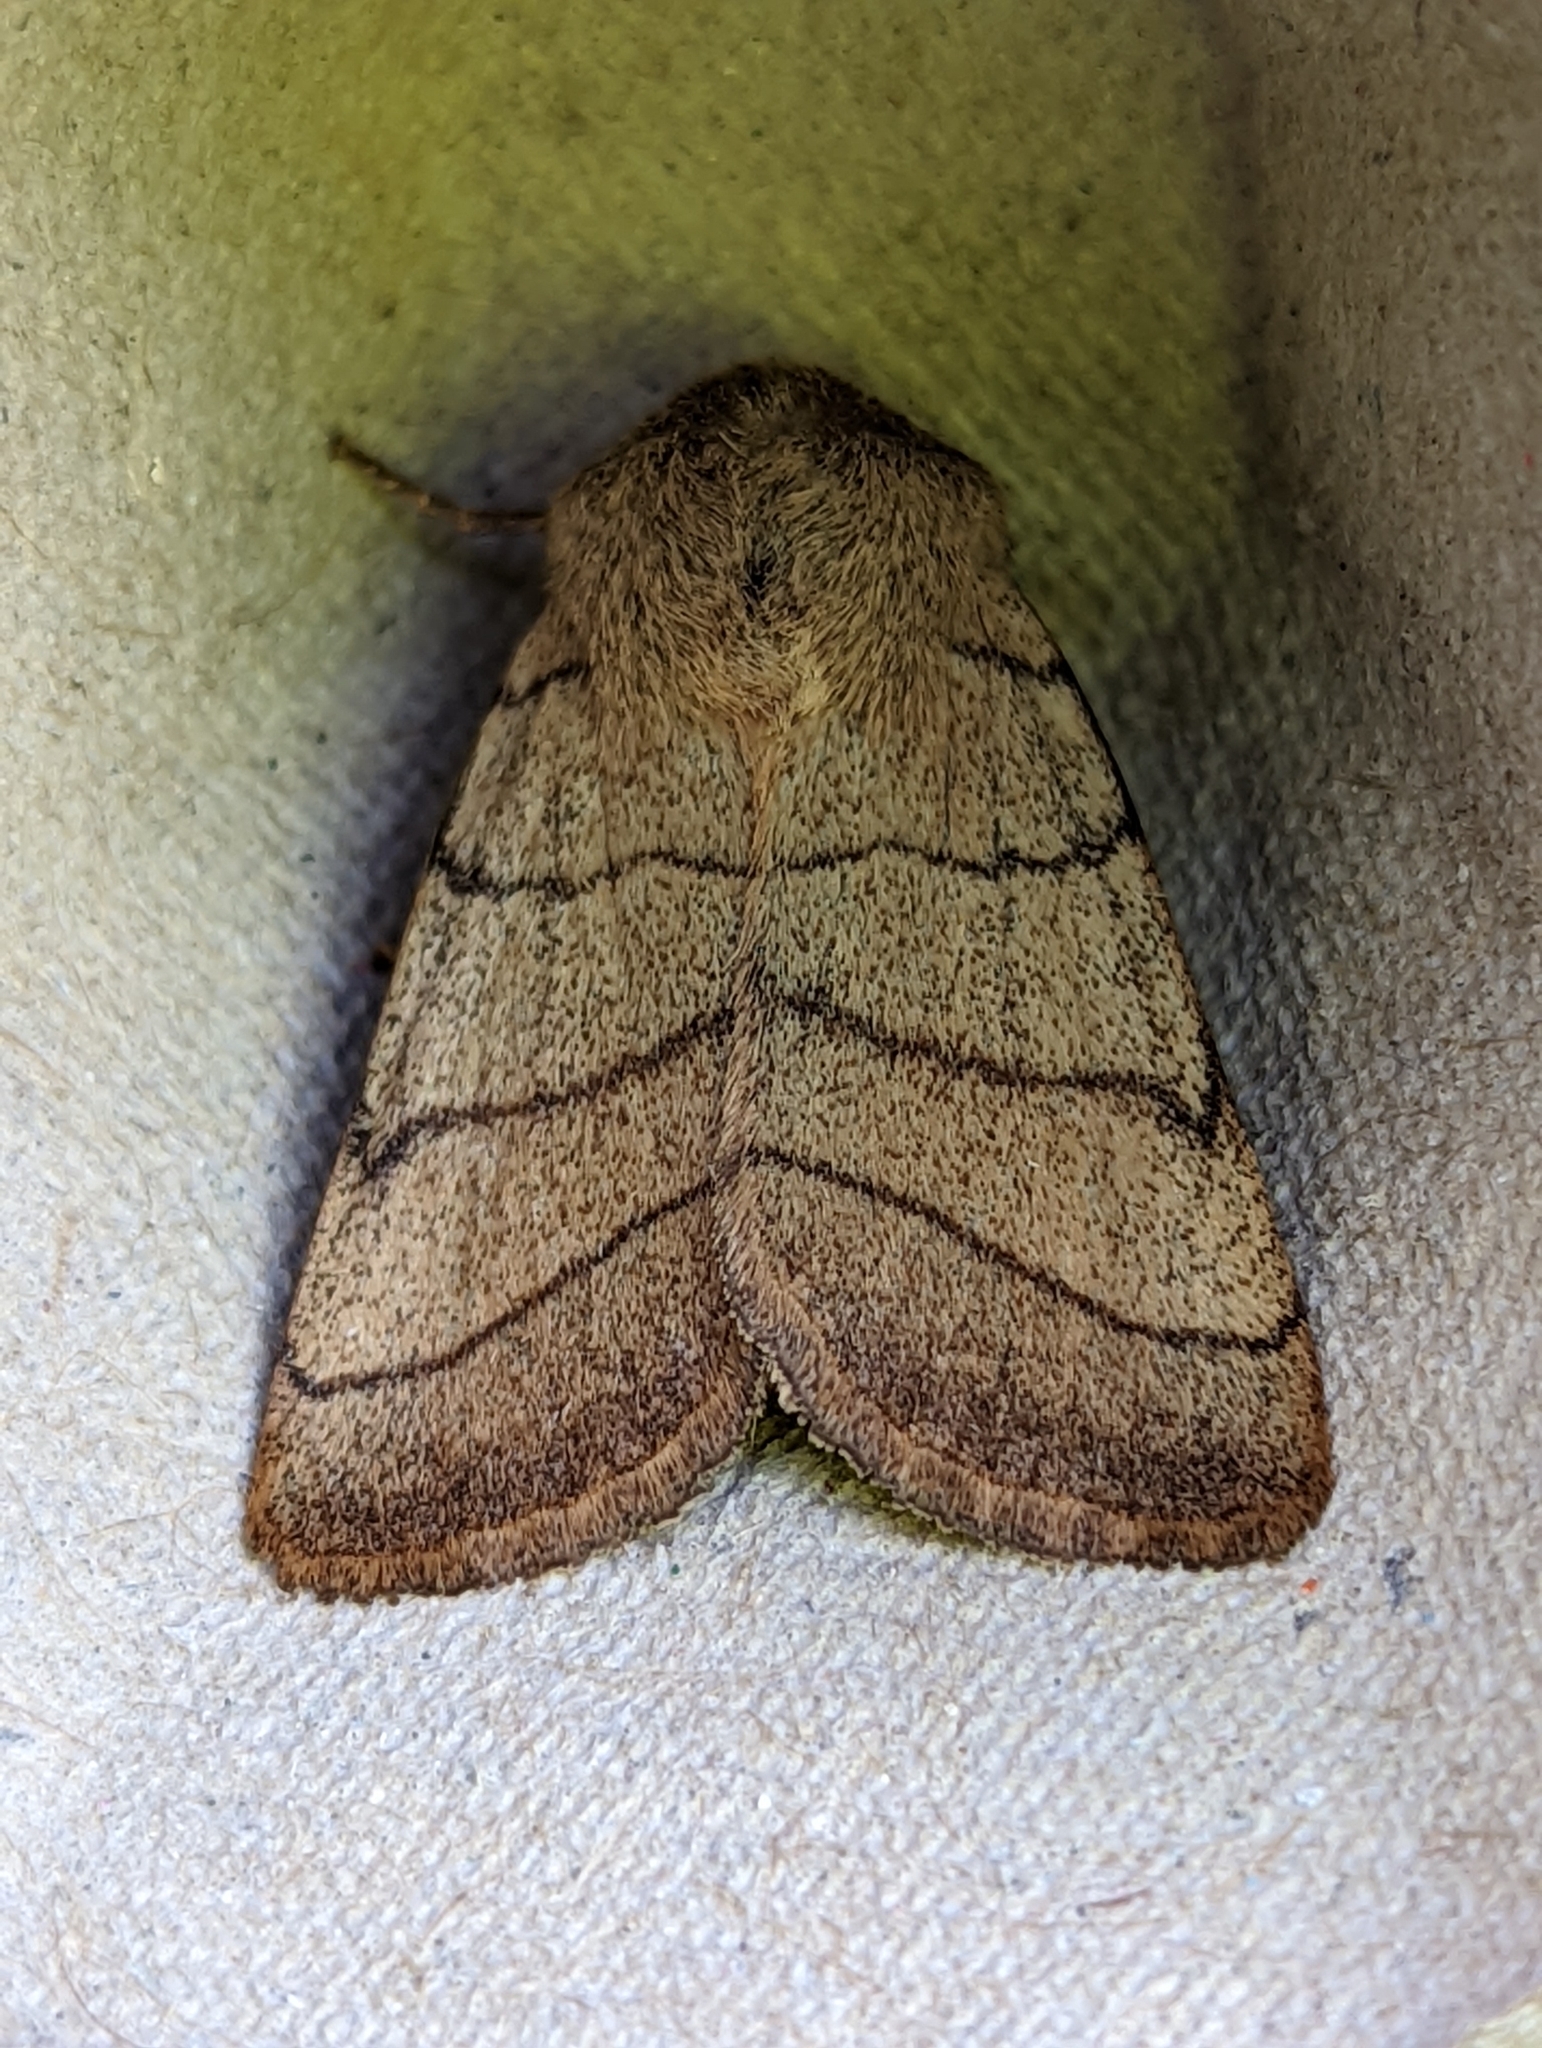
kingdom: Animalia
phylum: Arthropoda
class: Insecta
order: Lepidoptera
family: Noctuidae
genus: Charanyca
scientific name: Charanyca trigrammica
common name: Treble lines
